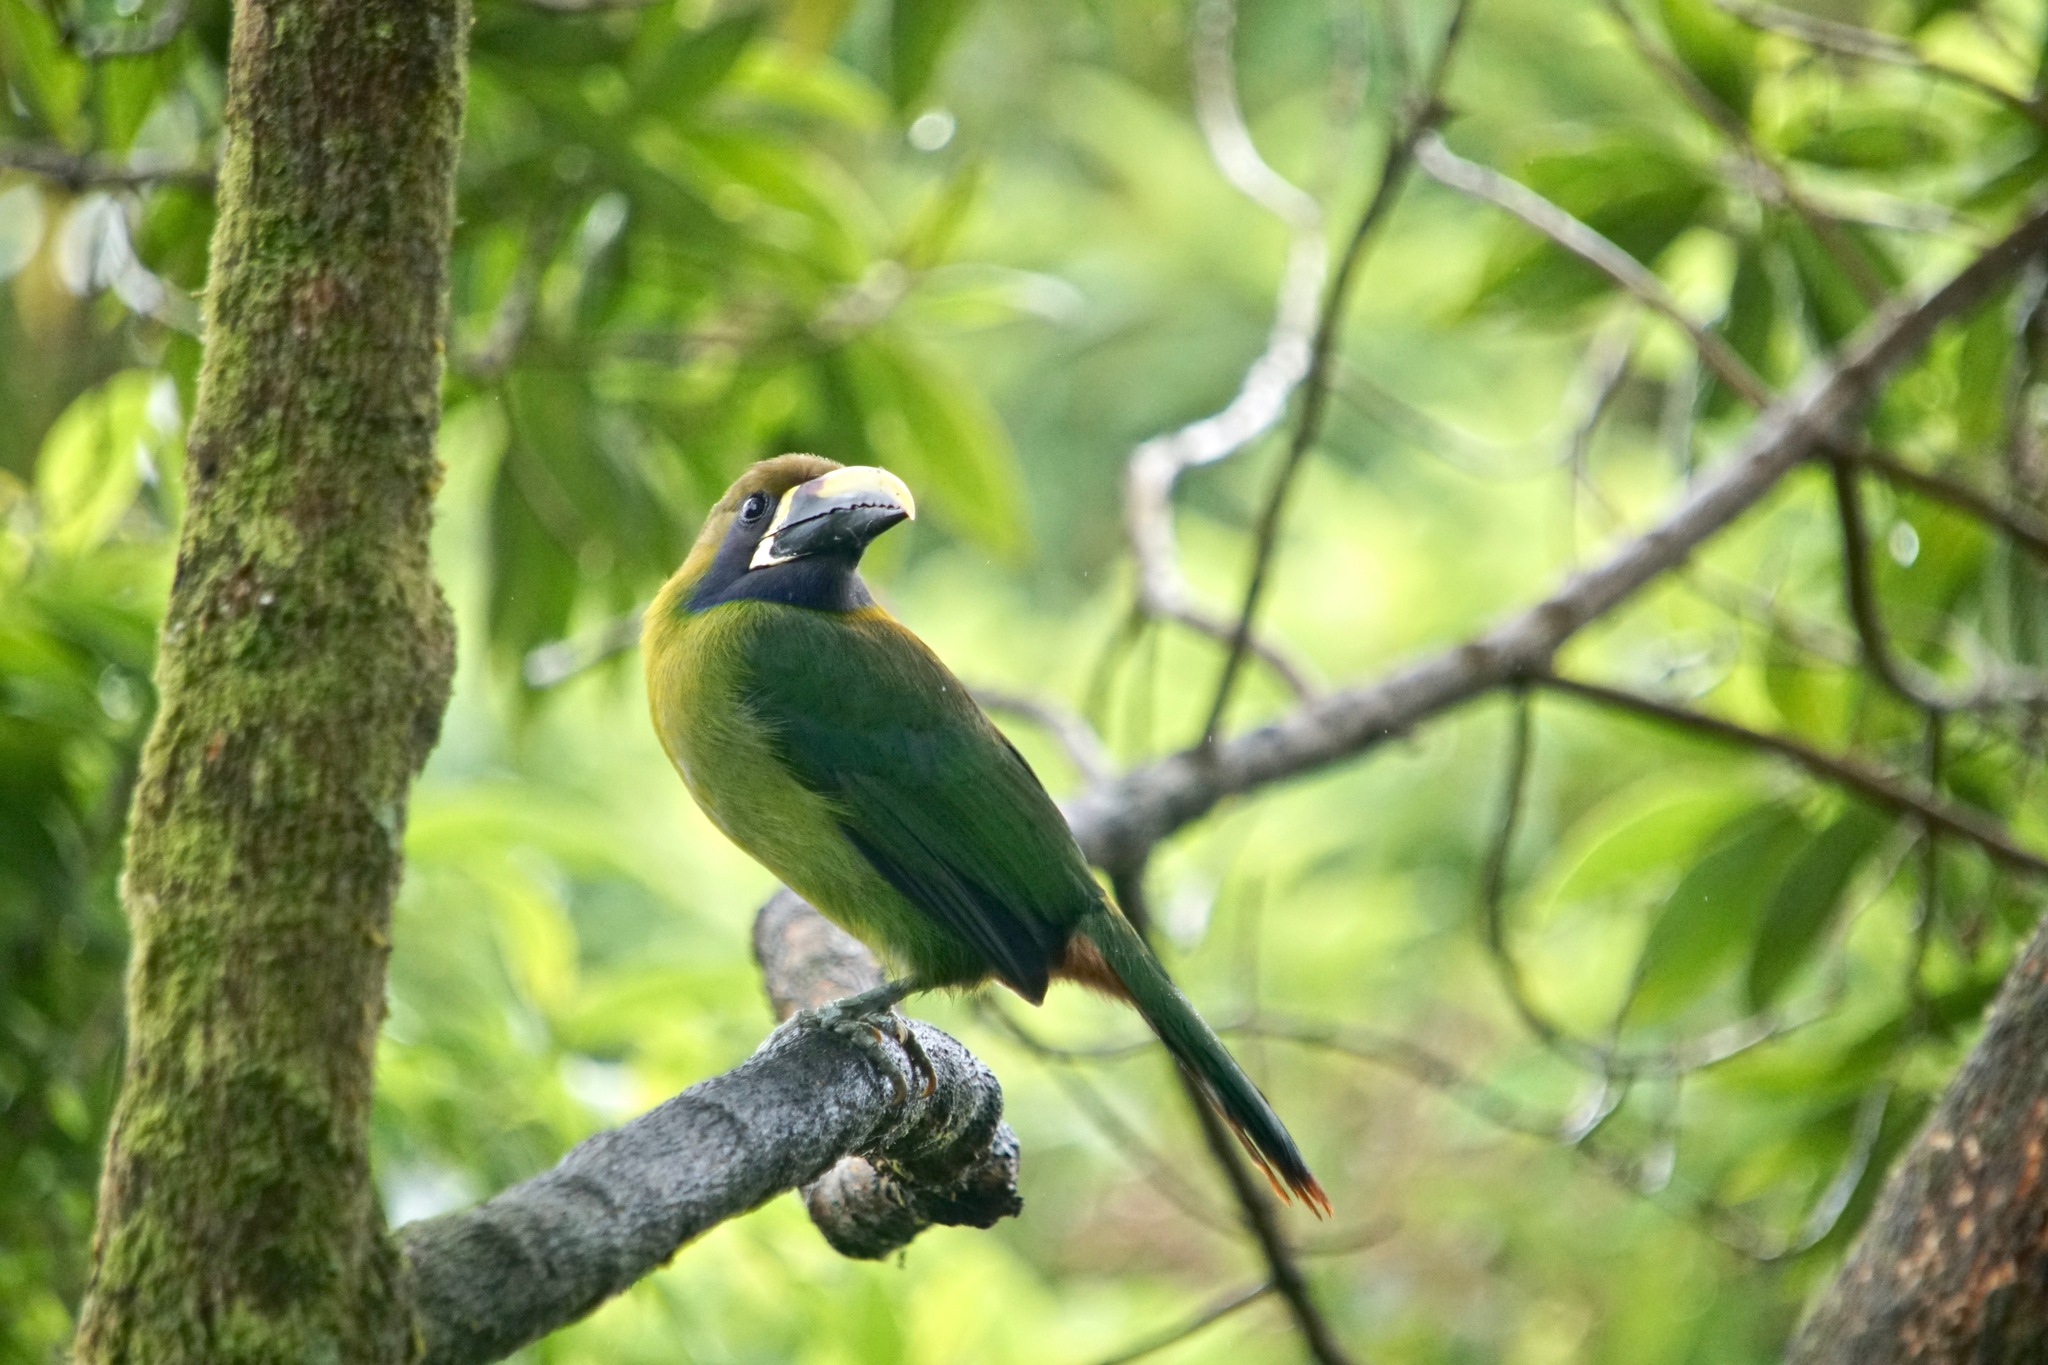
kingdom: Animalia
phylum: Chordata
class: Aves
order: Piciformes
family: Ramphastidae
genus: Aulacorhynchus
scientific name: Aulacorhynchus prasinus
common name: Emerald toucanet
